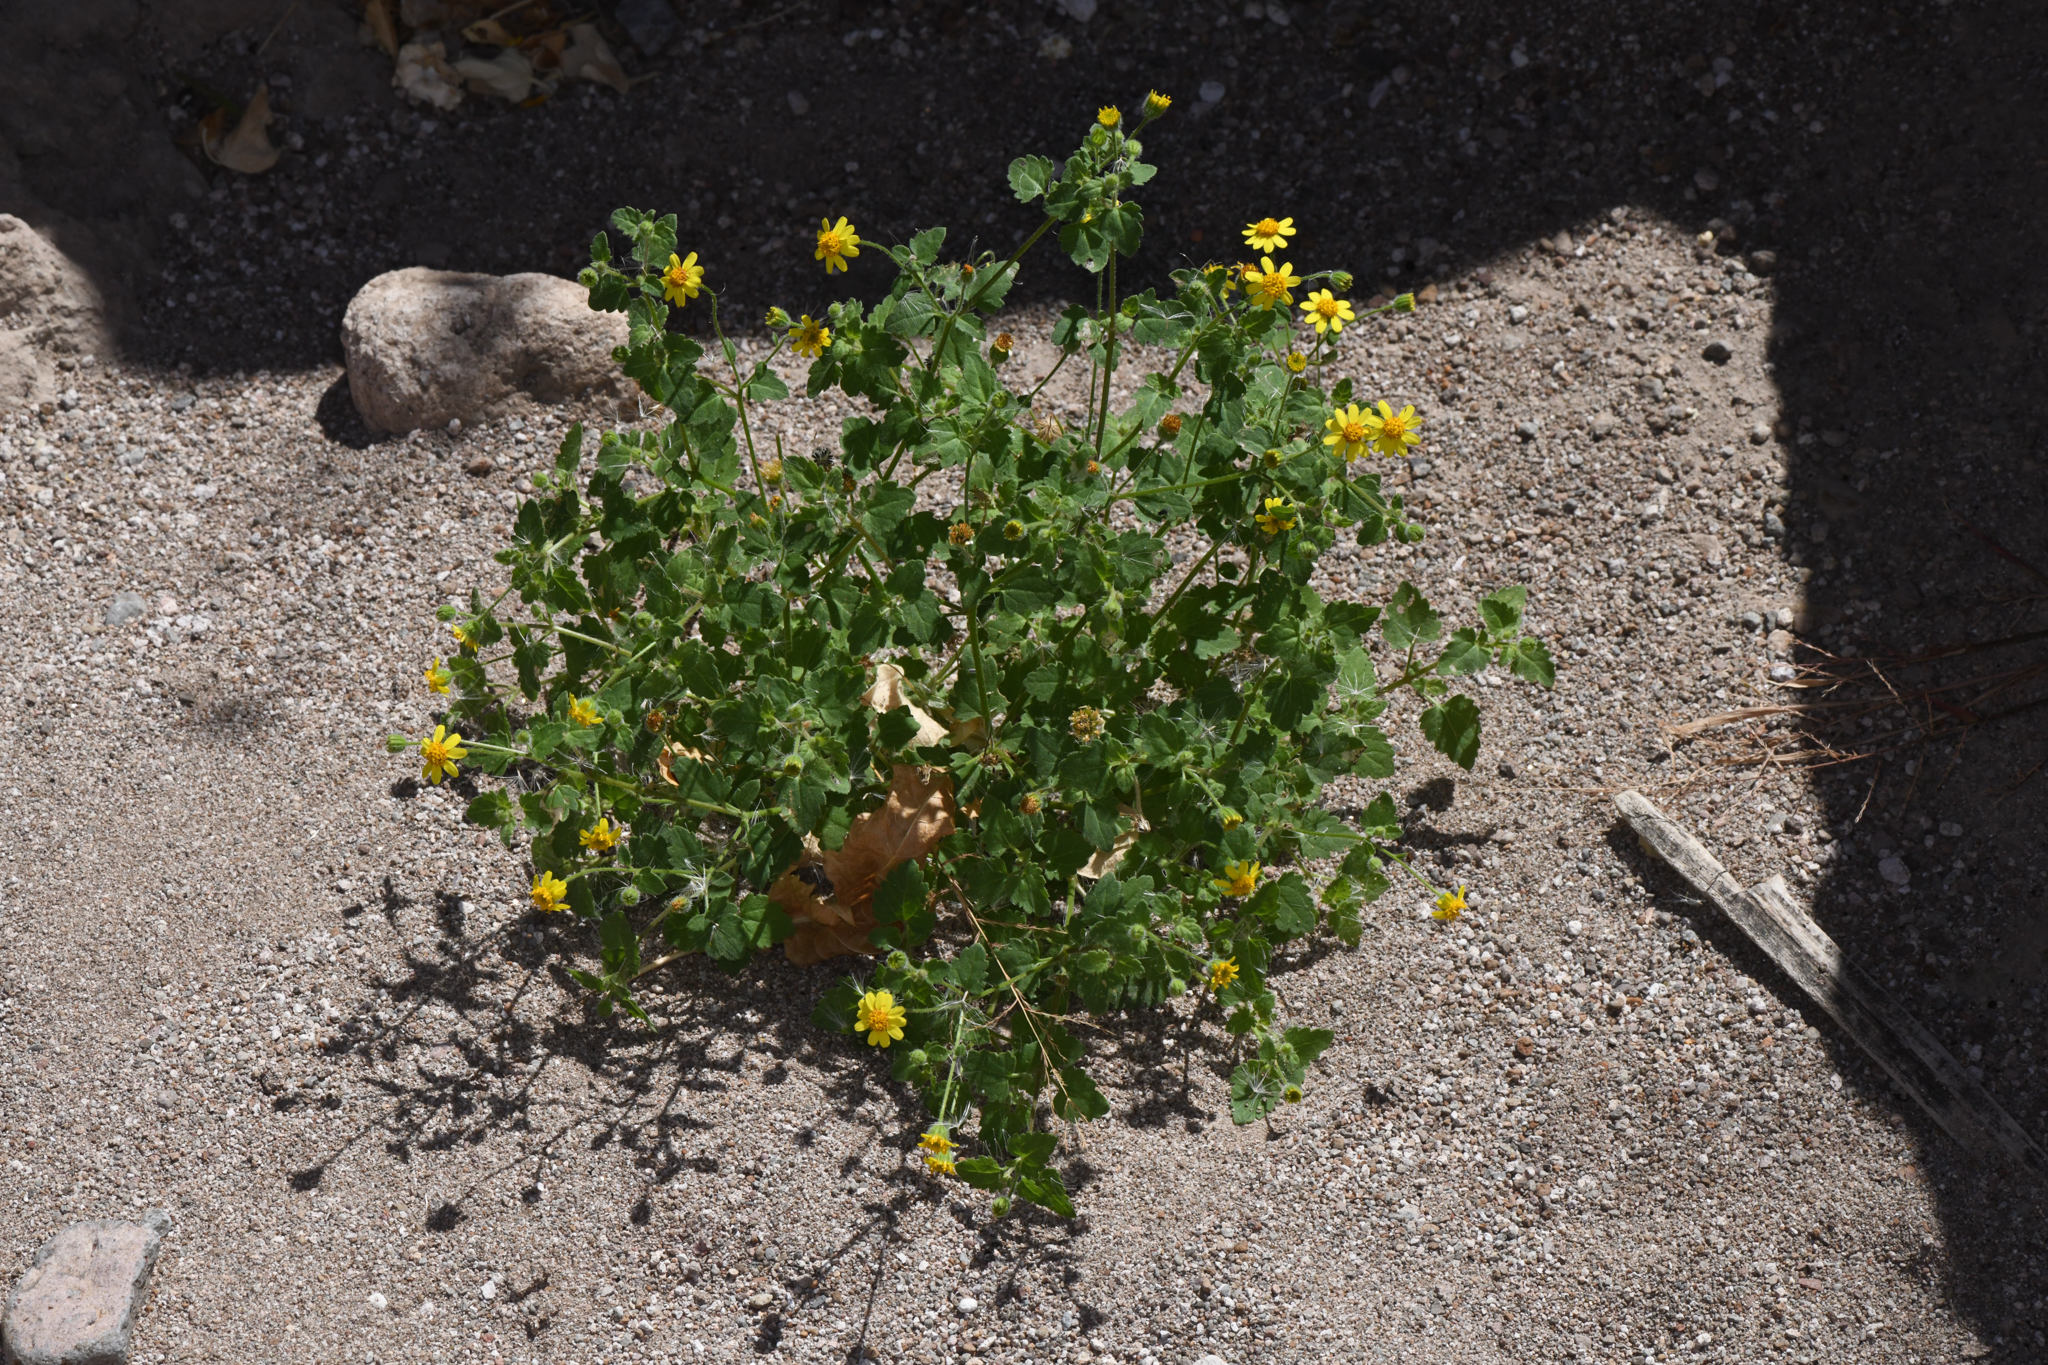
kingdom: Plantae
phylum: Tracheophyta
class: Magnoliopsida
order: Asterales
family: Asteraceae
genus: Perityle
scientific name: Perityle californica
